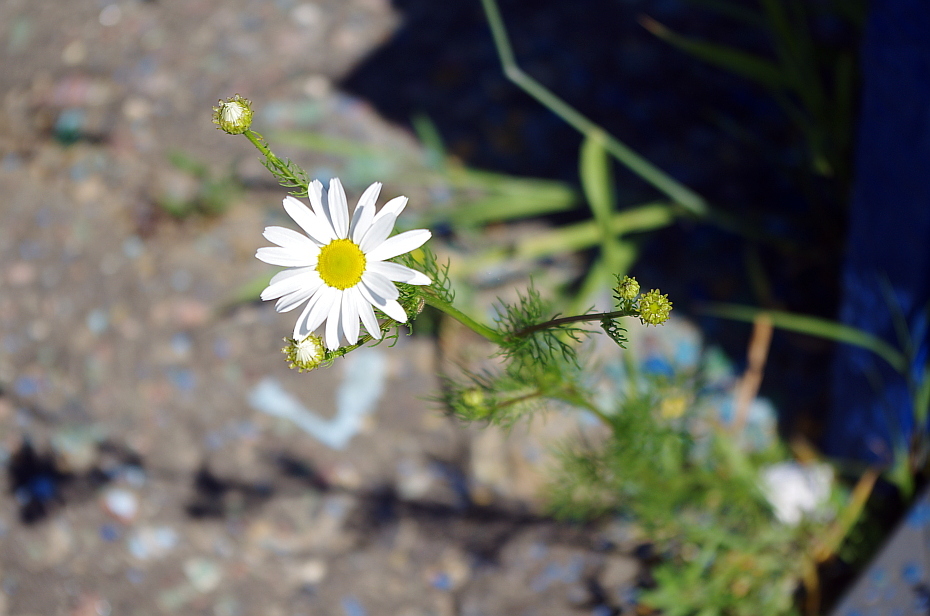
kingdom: Plantae
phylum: Tracheophyta
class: Magnoliopsida
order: Asterales
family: Asteraceae
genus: Tripleurospermum
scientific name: Tripleurospermum inodorum
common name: Scentless mayweed
